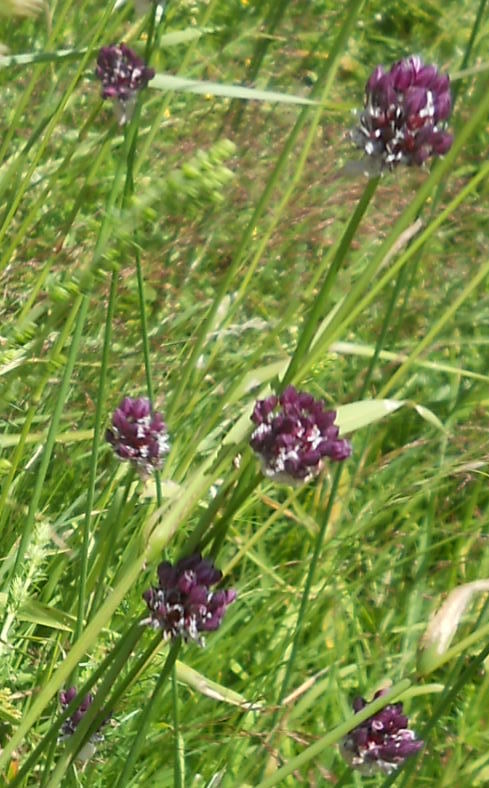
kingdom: Plantae
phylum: Tracheophyta
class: Liliopsida
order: Asparagales
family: Amaryllidaceae
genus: Allium
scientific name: Allium scorodoprasum
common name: Sand leek
